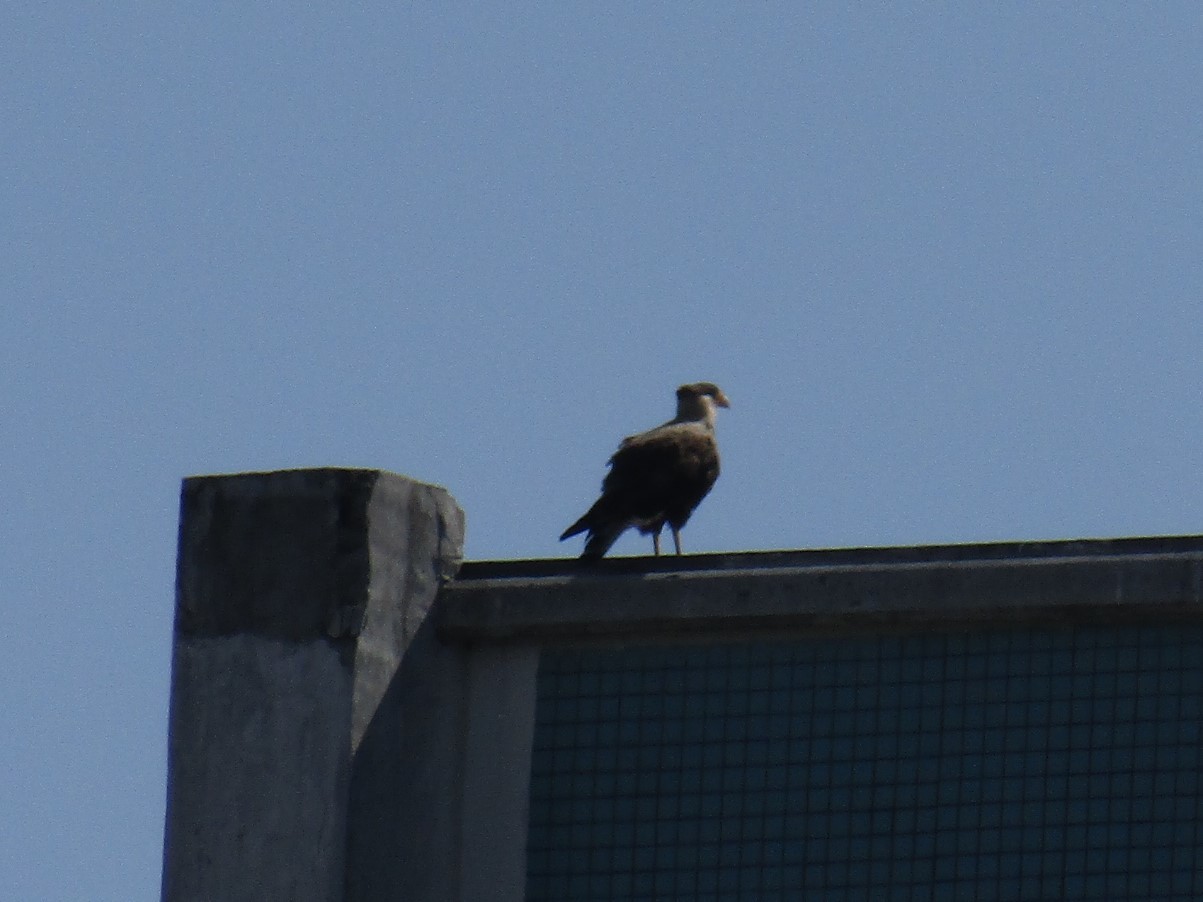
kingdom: Animalia
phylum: Chordata
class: Aves
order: Falconiformes
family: Falconidae
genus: Caracara
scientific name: Caracara plancus
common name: Southern caracara
